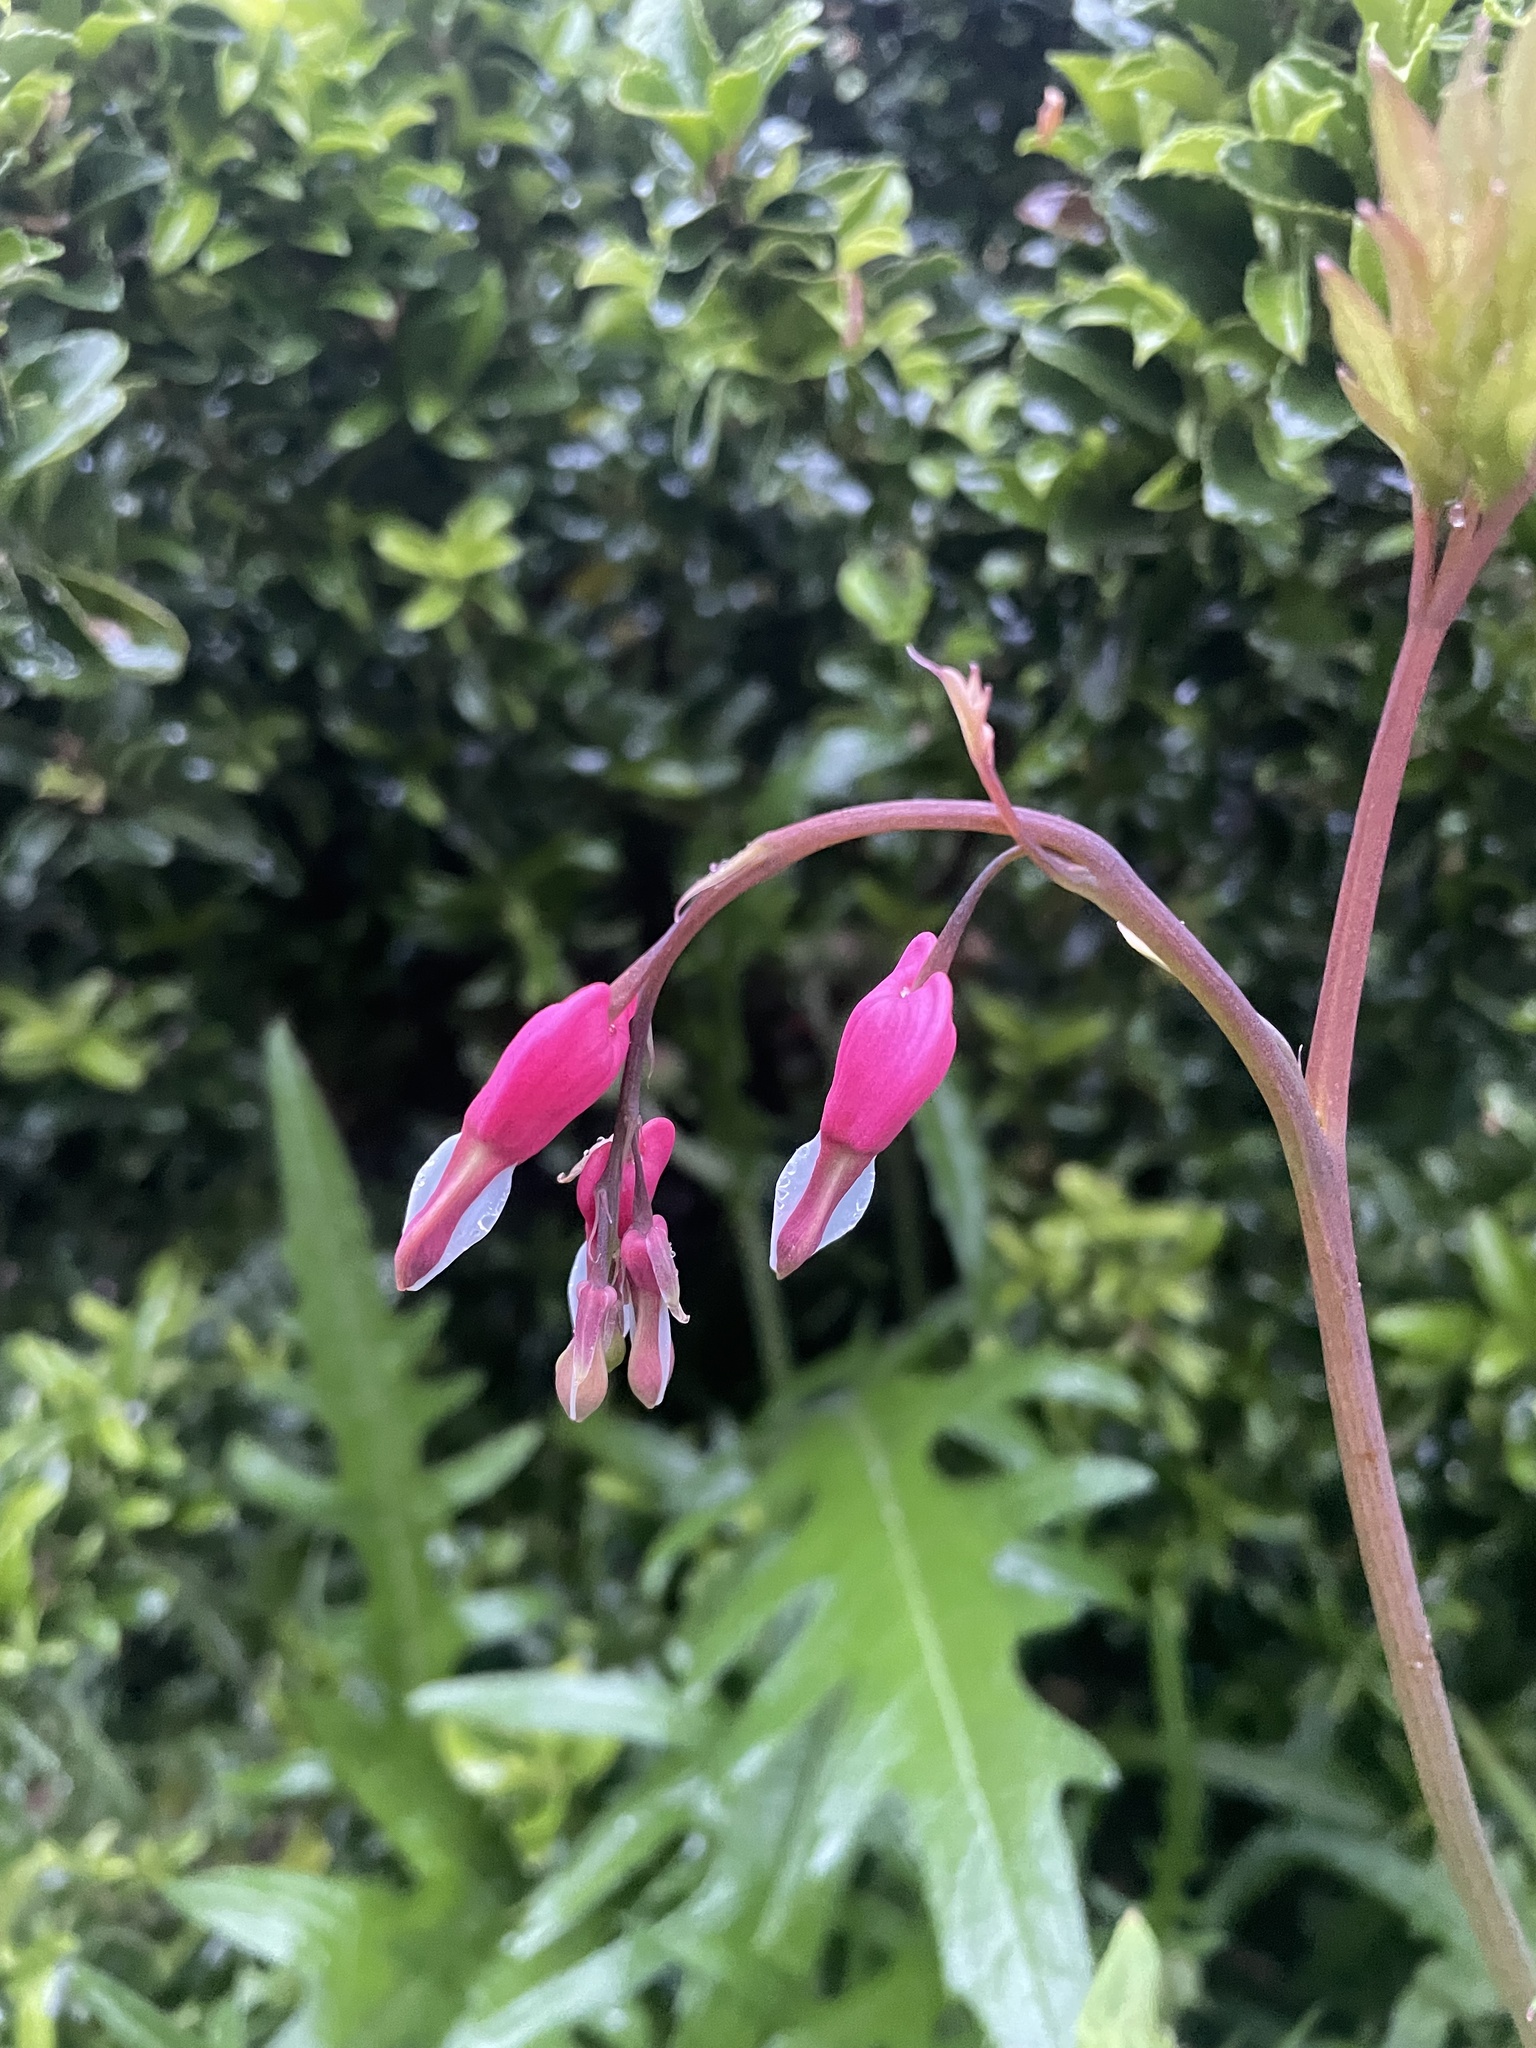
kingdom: Plantae
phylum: Tracheophyta
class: Magnoliopsida
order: Ranunculales
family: Papaveraceae
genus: Lamprocapnos
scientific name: Lamprocapnos spectabilis
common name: Asian bleeding-heart
